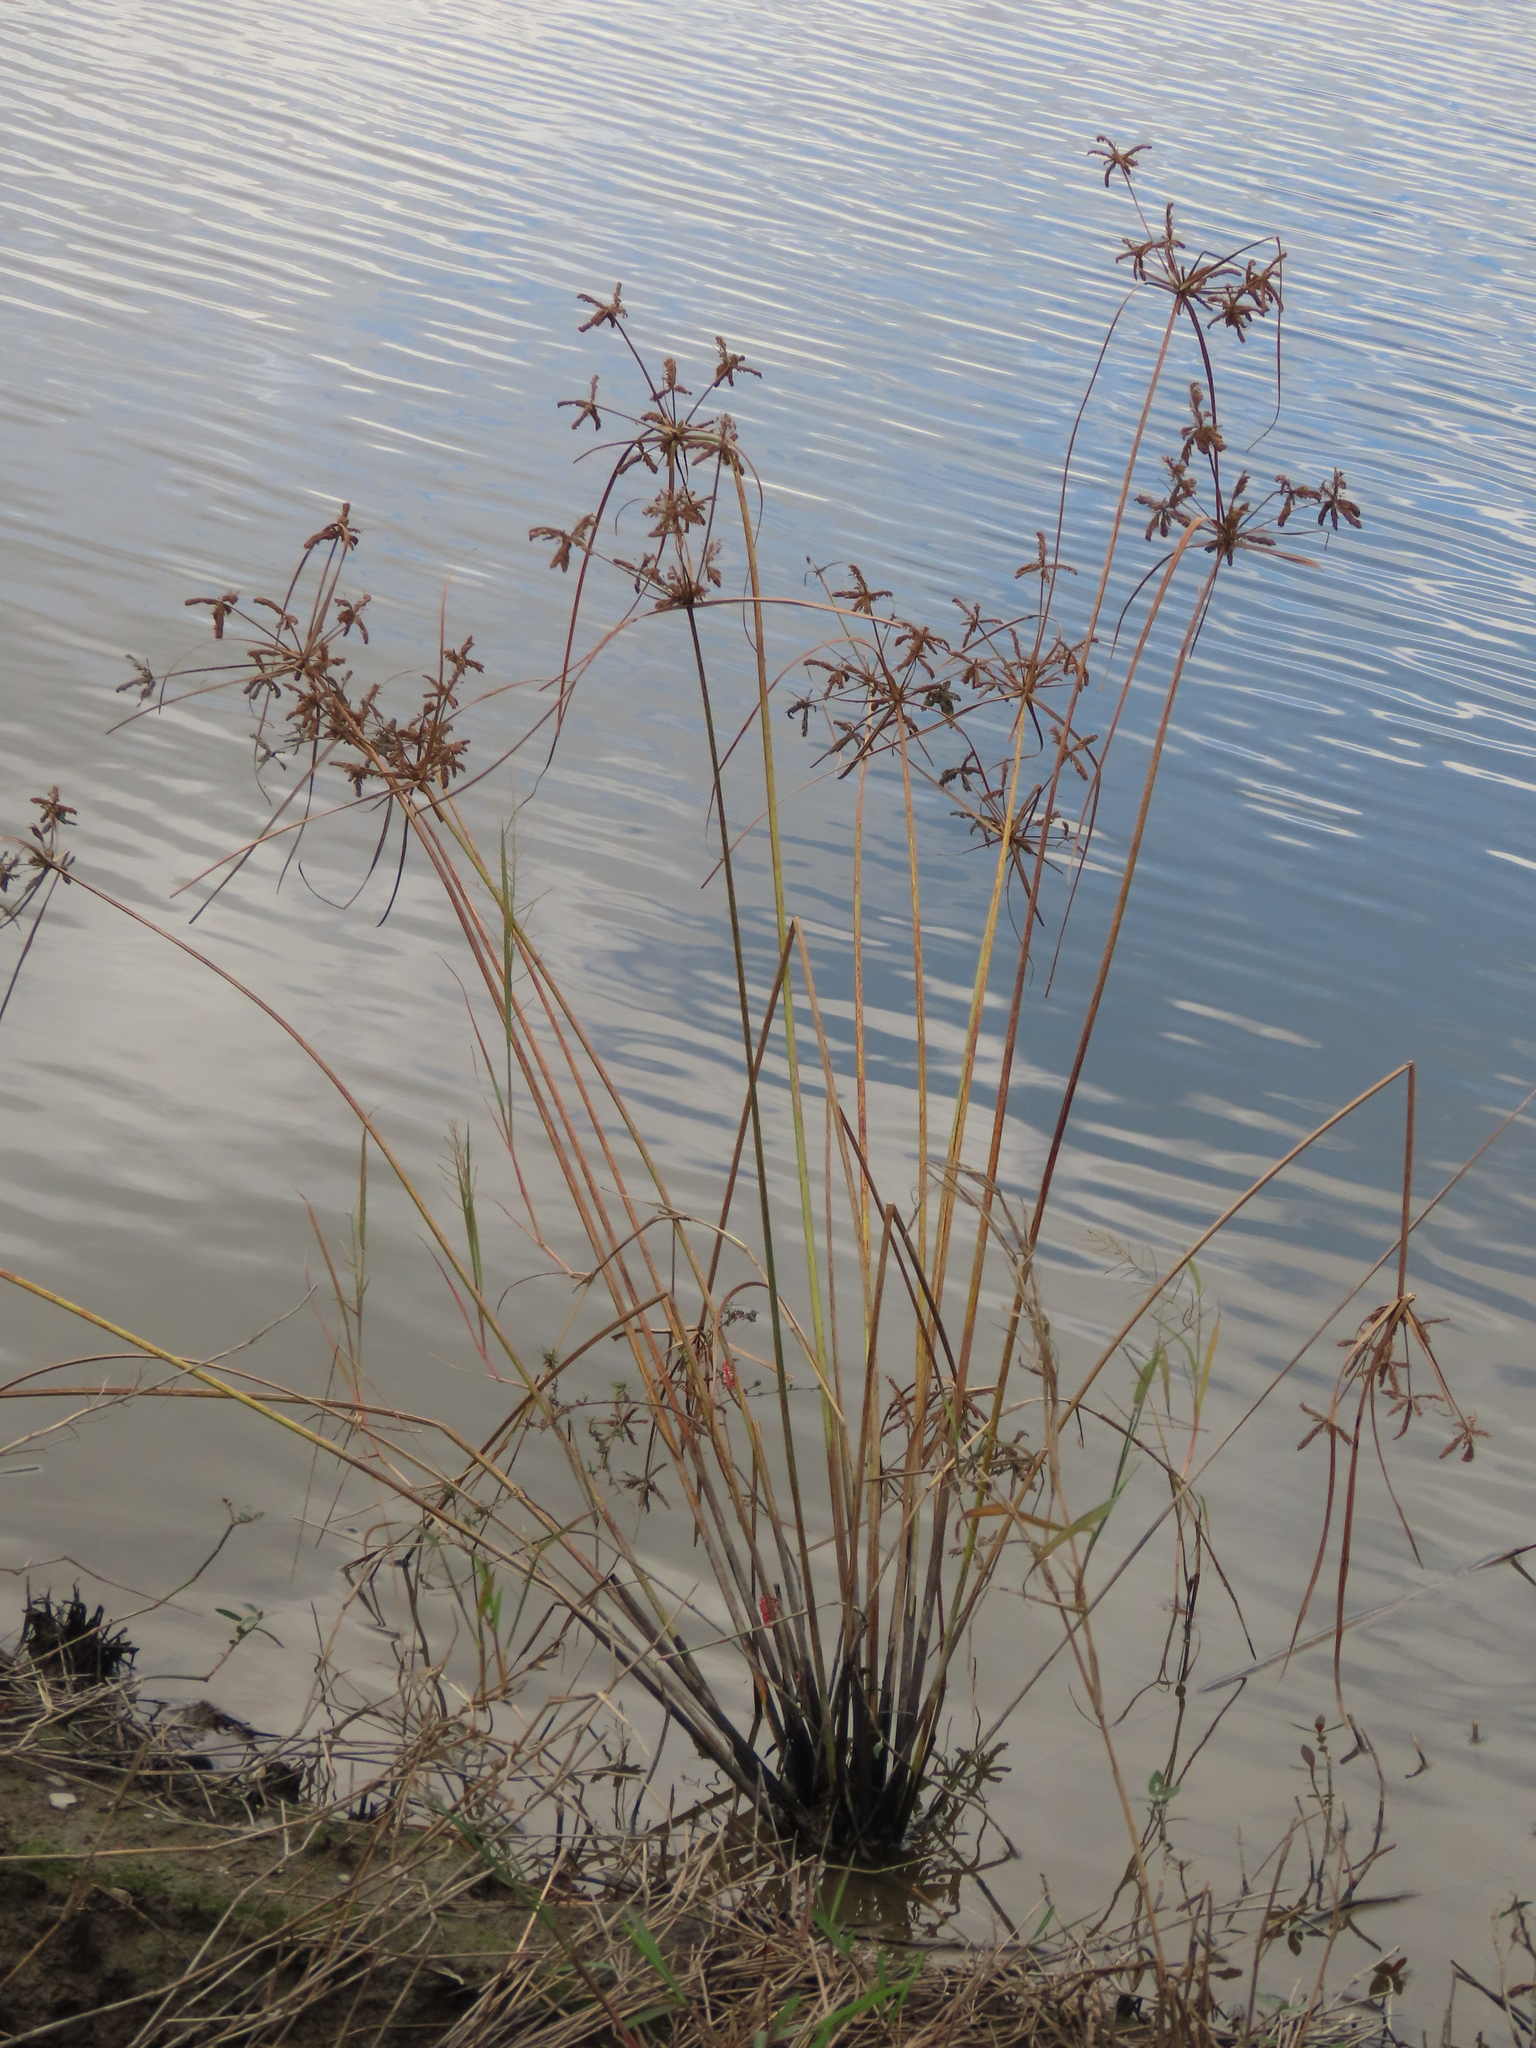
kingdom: Plantae
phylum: Tracheophyta
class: Liliopsida
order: Poales
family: Cyperaceae
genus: Cyperus
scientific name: Cyperus imbricatus
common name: Shingle flatsedge
